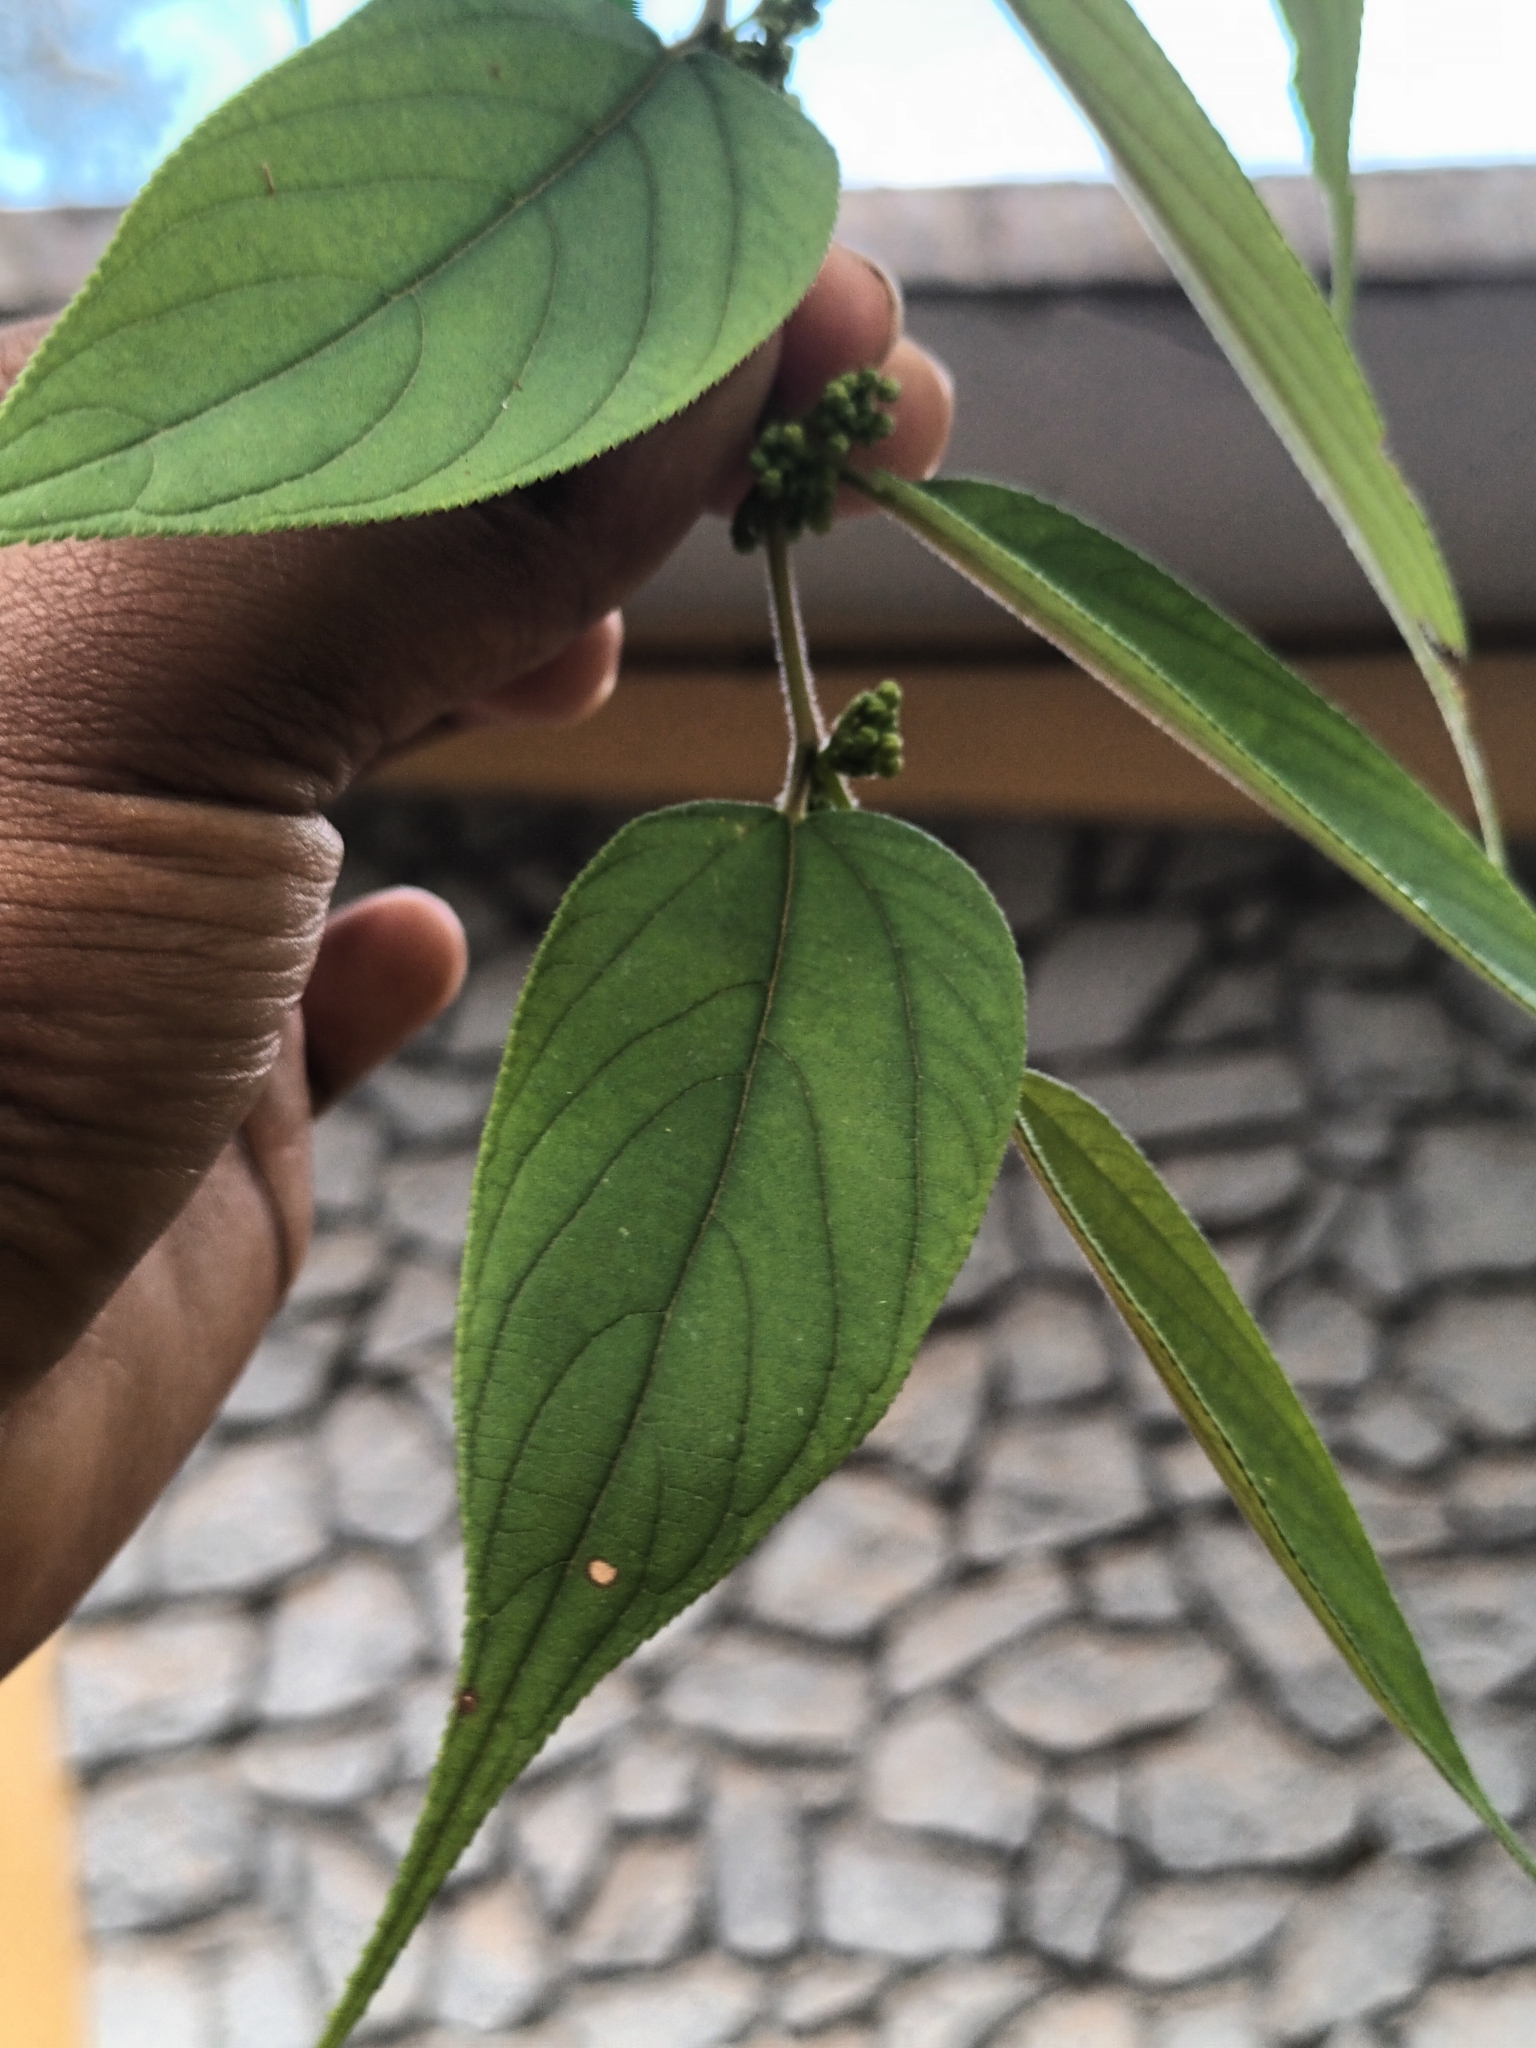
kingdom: Plantae
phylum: Tracheophyta
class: Magnoliopsida
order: Rosales
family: Cannabaceae
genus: Trema
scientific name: Trema orientale
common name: Indian charcoal tree
